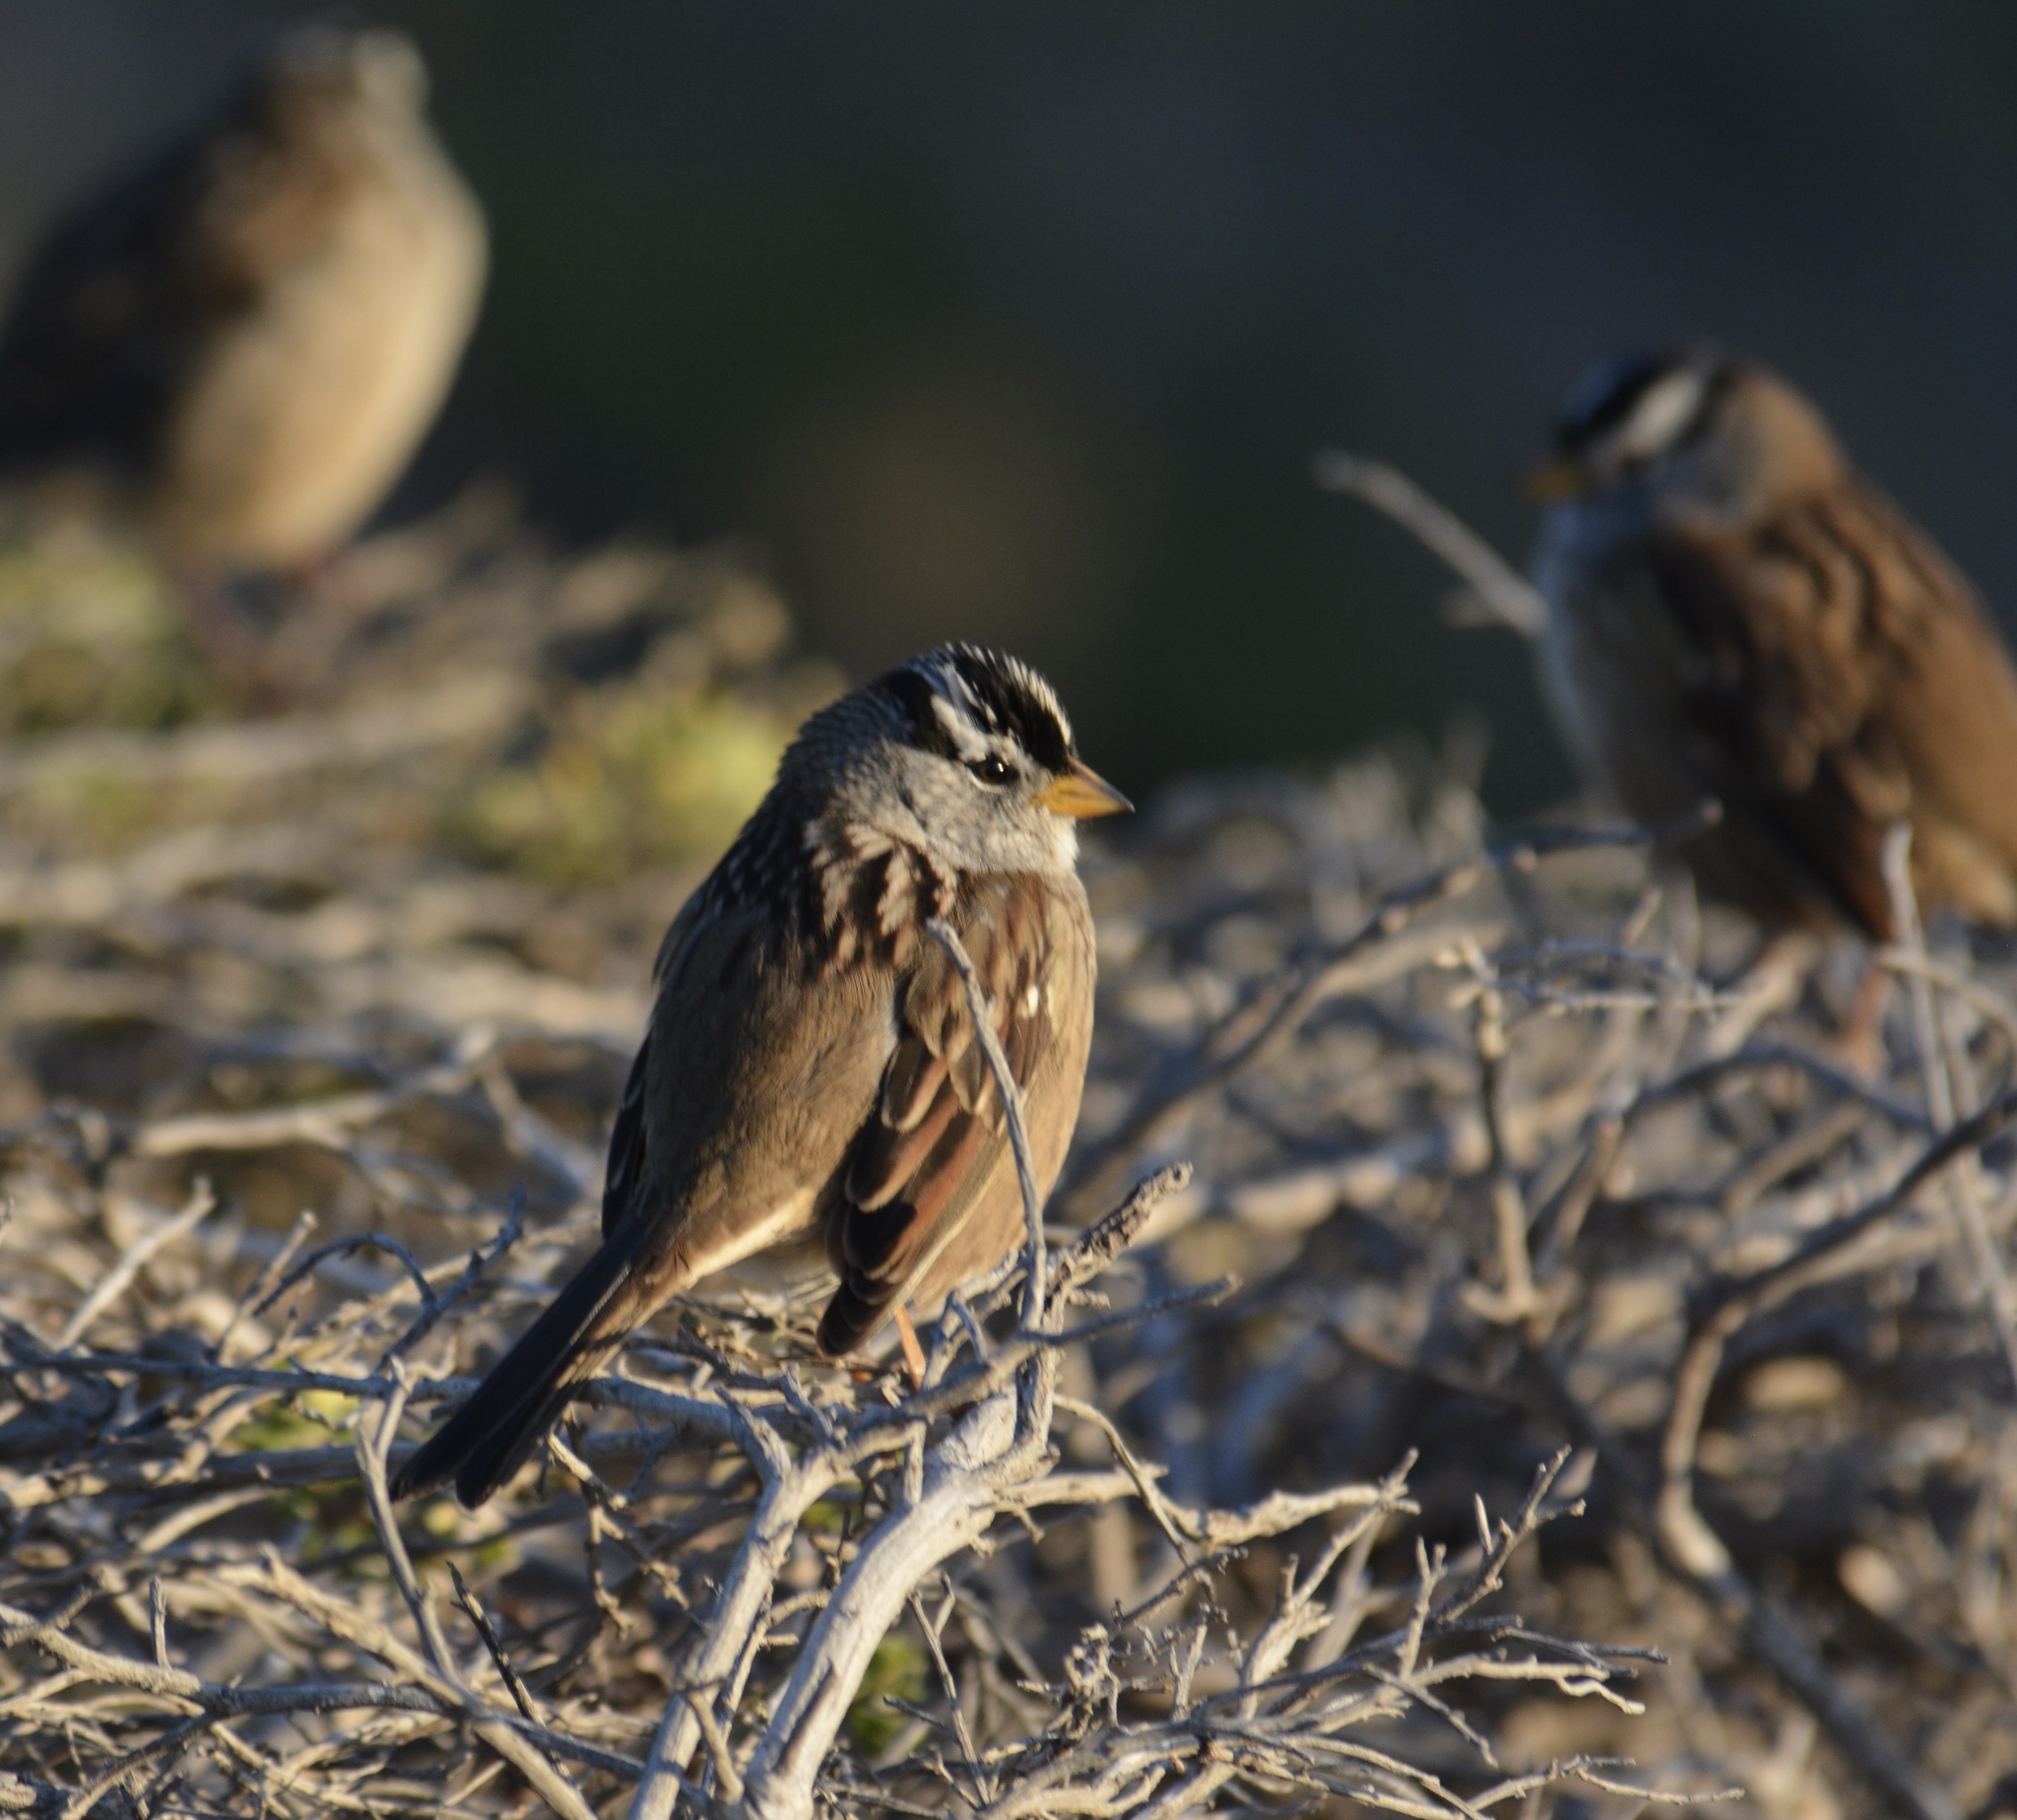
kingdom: Animalia
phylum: Chordata
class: Aves
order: Passeriformes
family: Passerellidae
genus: Zonotrichia
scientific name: Zonotrichia leucophrys
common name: White-crowned sparrow
